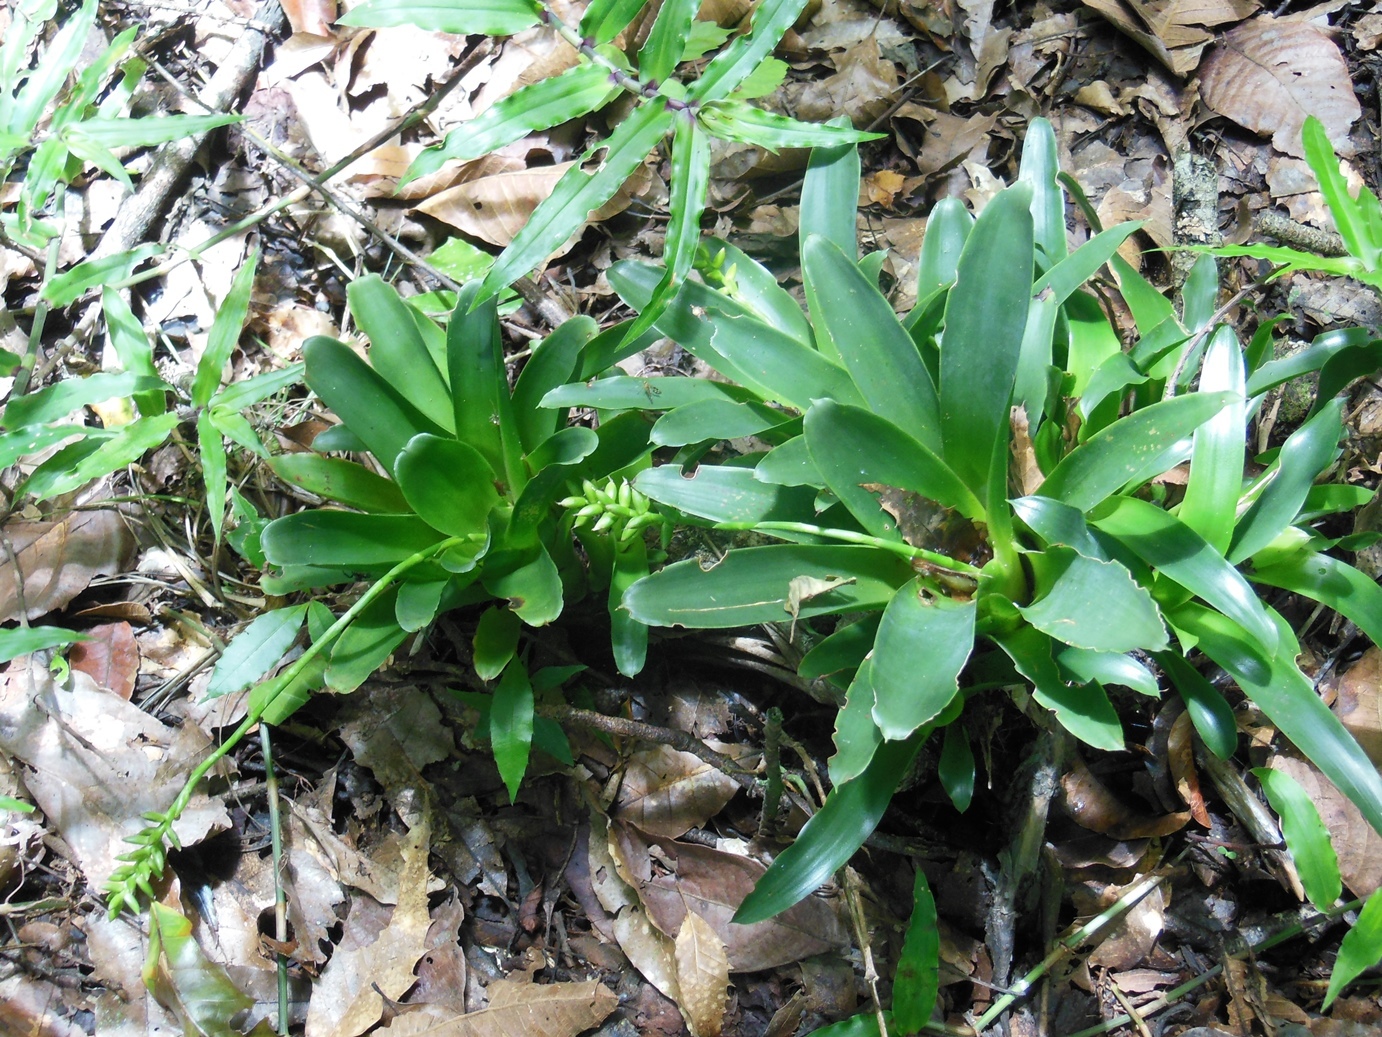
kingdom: Plantae
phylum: Tracheophyta
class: Liliopsida
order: Poales
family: Bromeliaceae
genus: Catopsis
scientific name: Catopsis nitida
